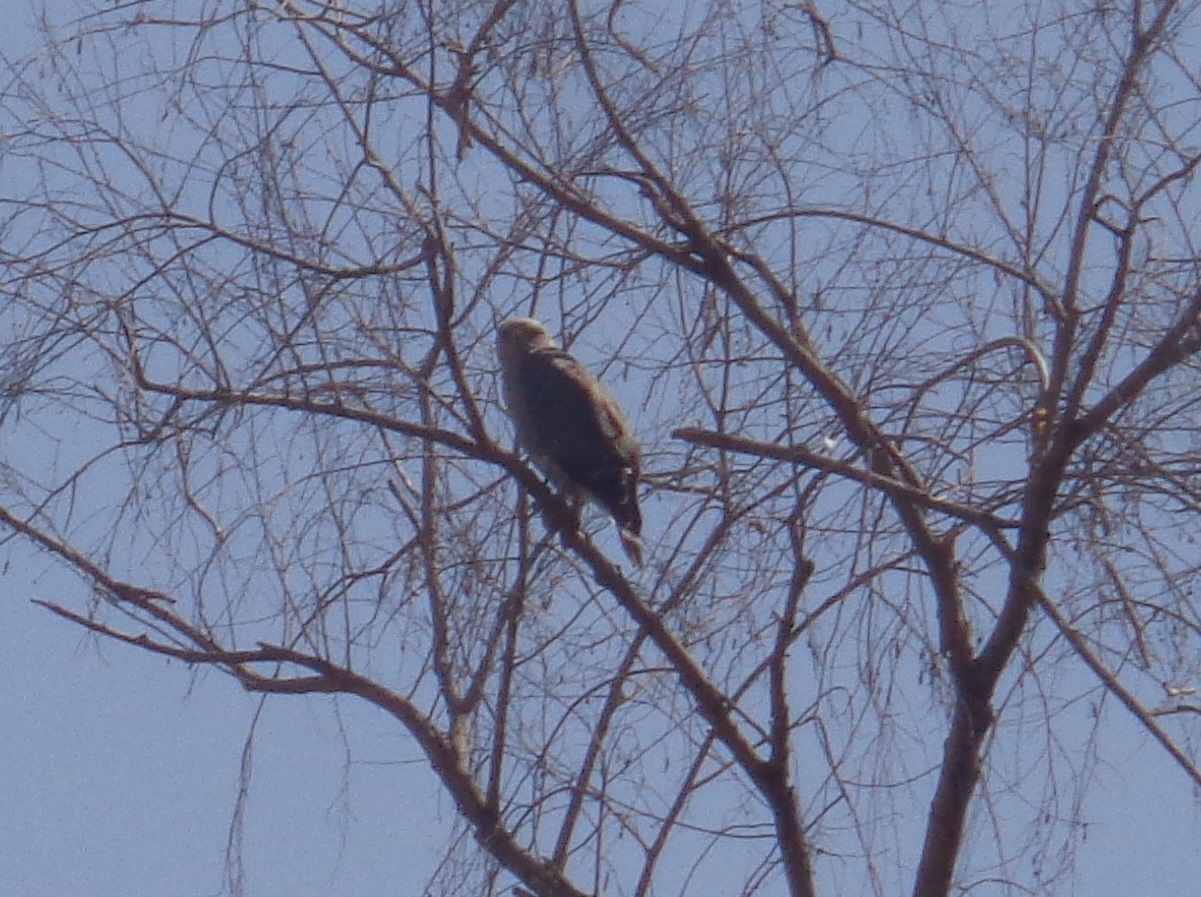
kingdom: Animalia
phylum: Chordata
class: Aves
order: Accipitriformes
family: Accipitridae
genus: Buteo
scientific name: Buteo nitidus
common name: Grey-lined hawk
